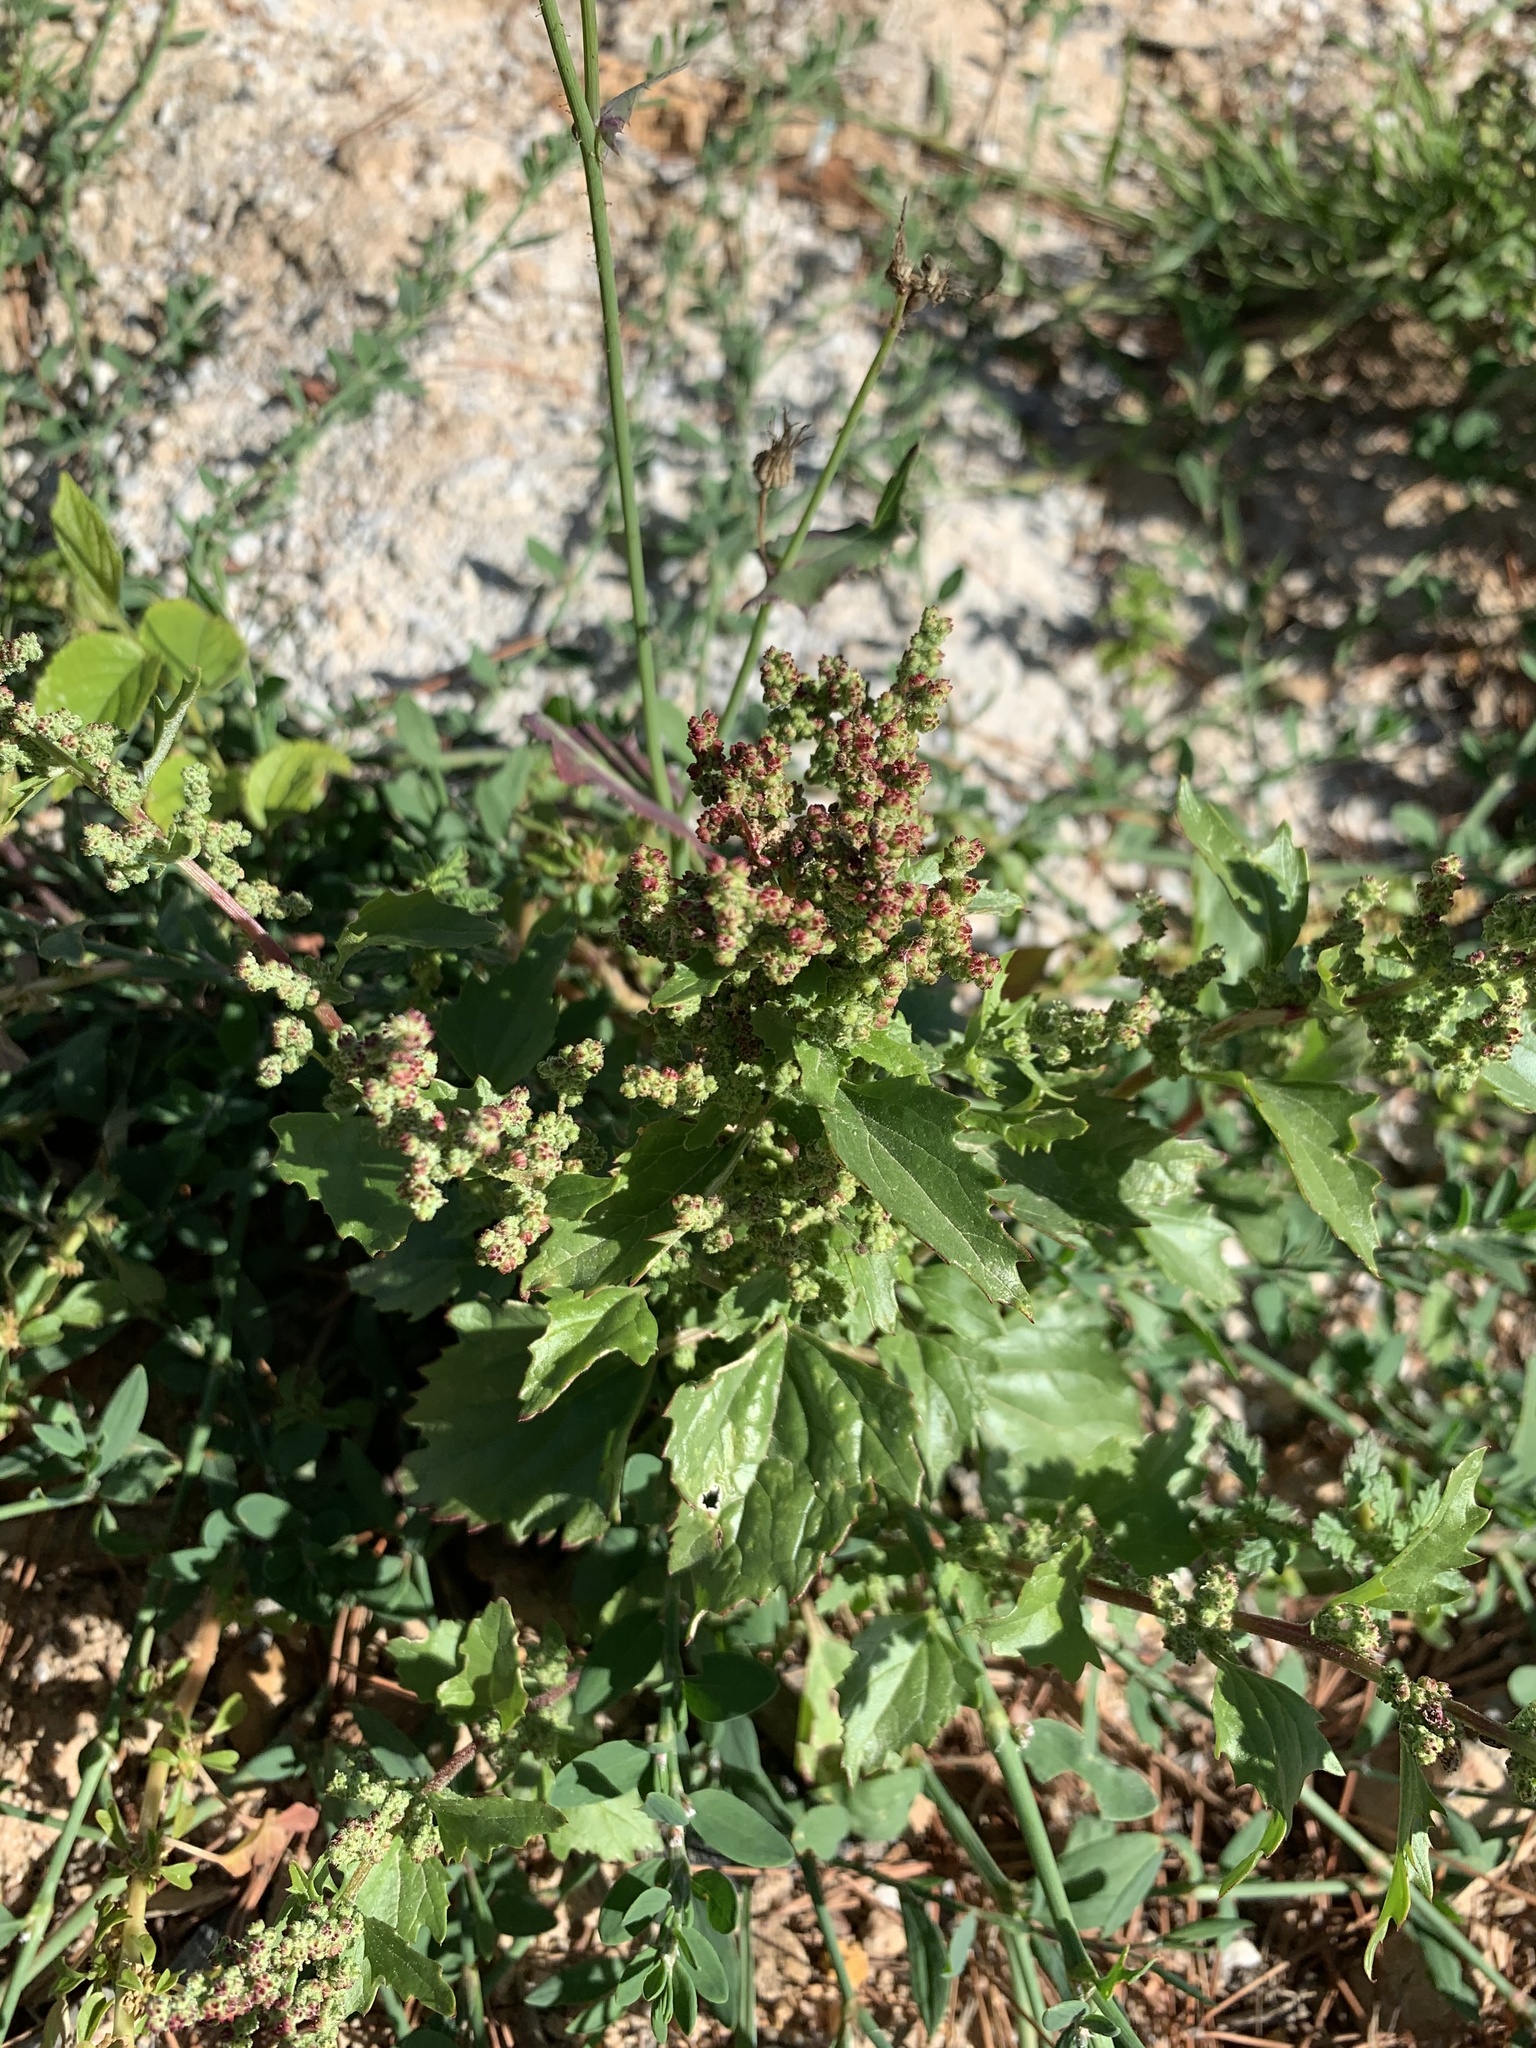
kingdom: Plantae
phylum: Tracheophyta
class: Magnoliopsida
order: Caryophyllales
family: Amaranthaceae
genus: Chenopodiastrum
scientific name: Chenopodiastrum murale
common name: Sowbane
